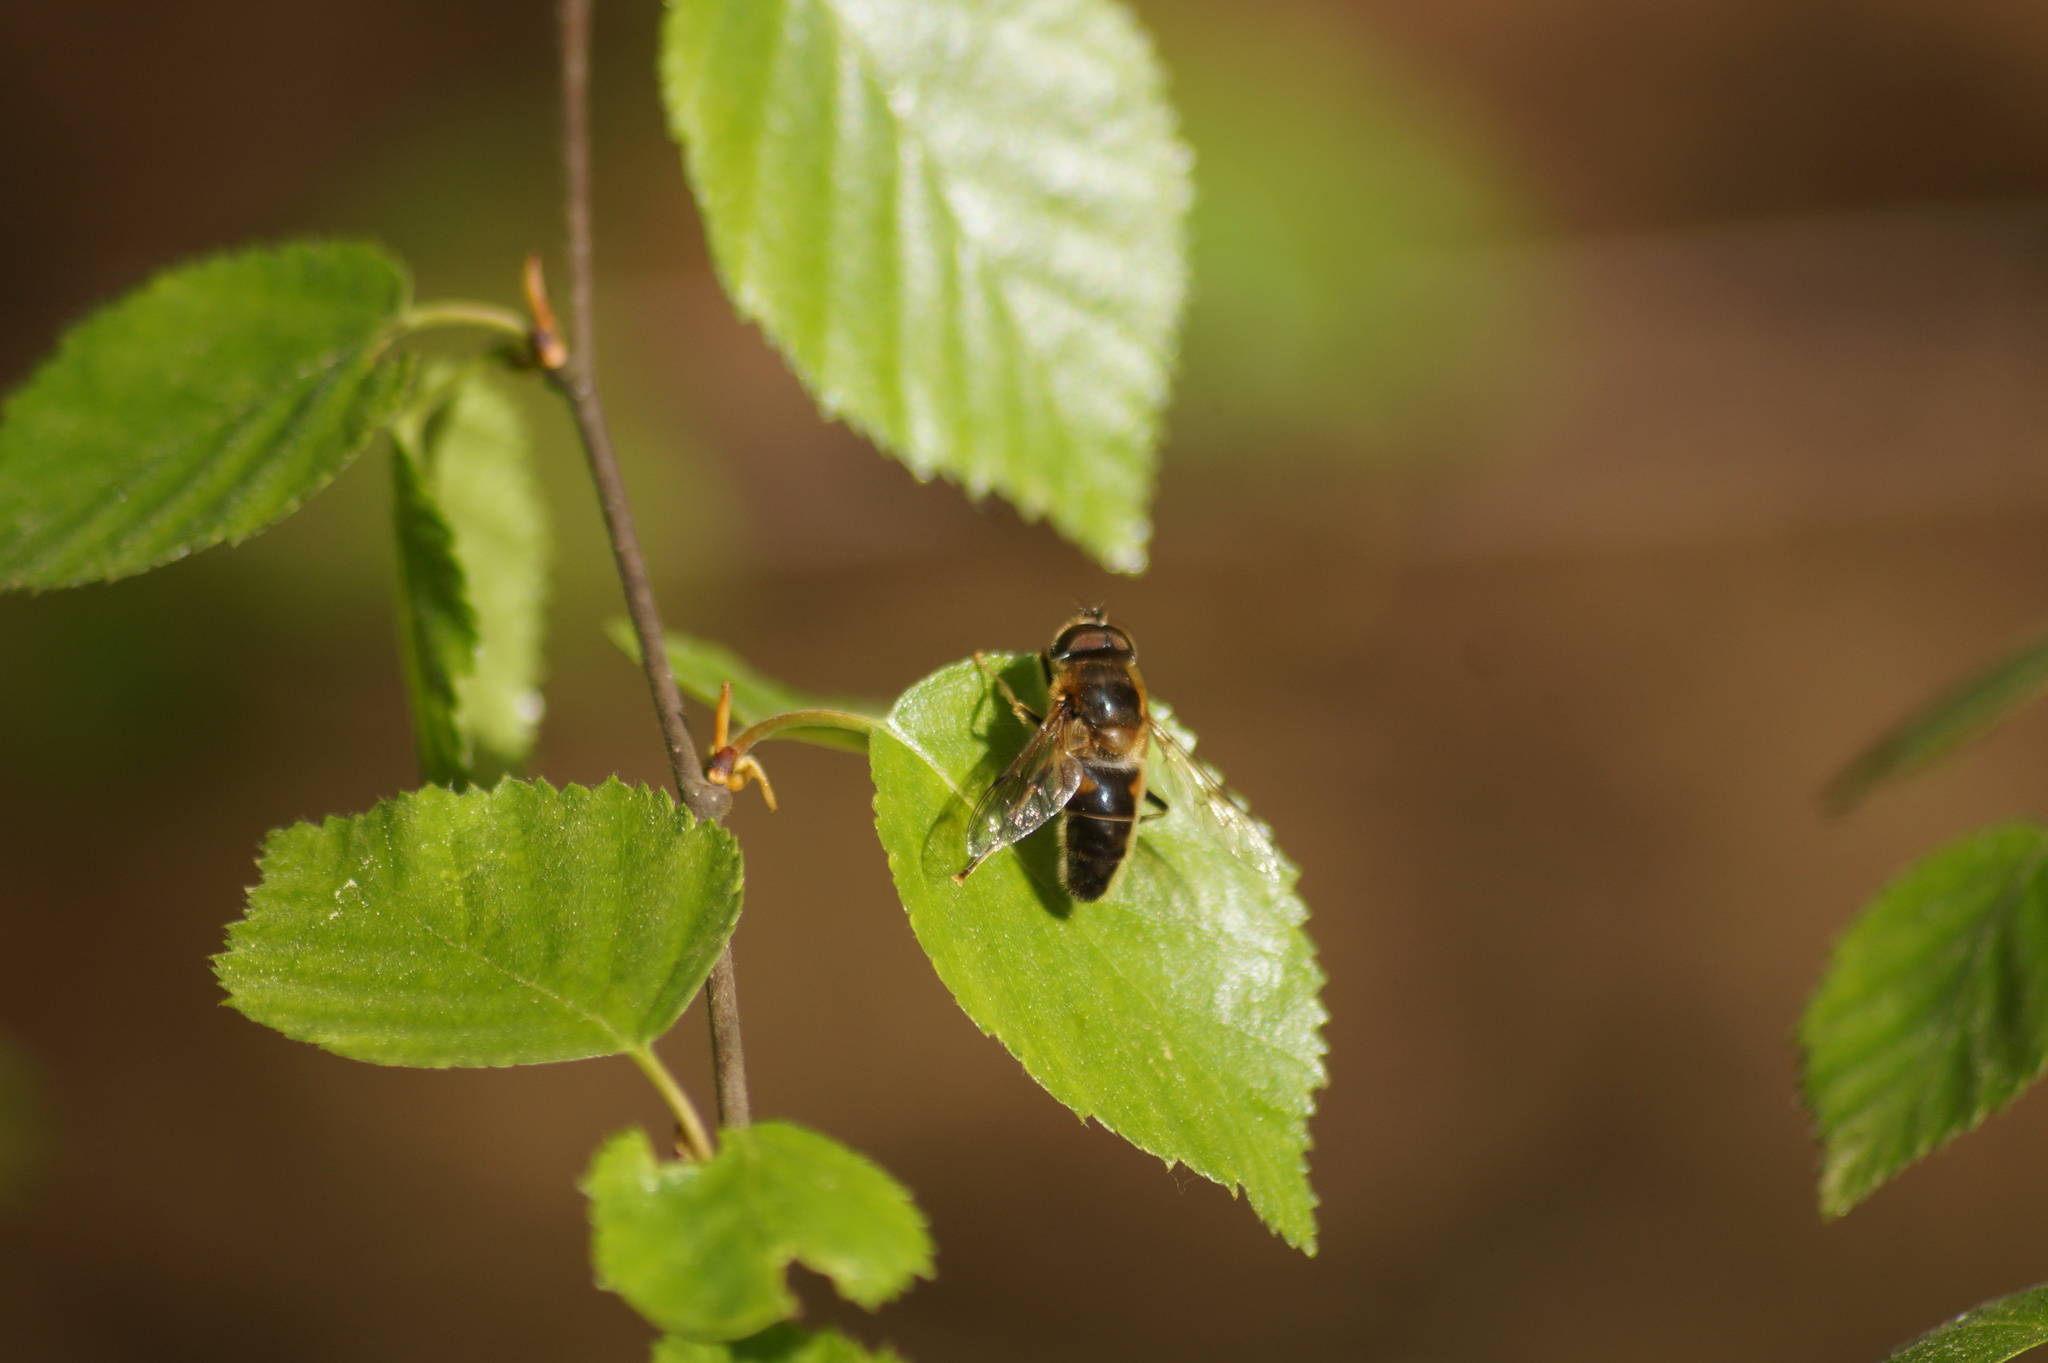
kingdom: Animalia
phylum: Arthropoda
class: Insecta
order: Diptera
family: Syrphidae
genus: Eristalis
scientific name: Eristalis pertinax
